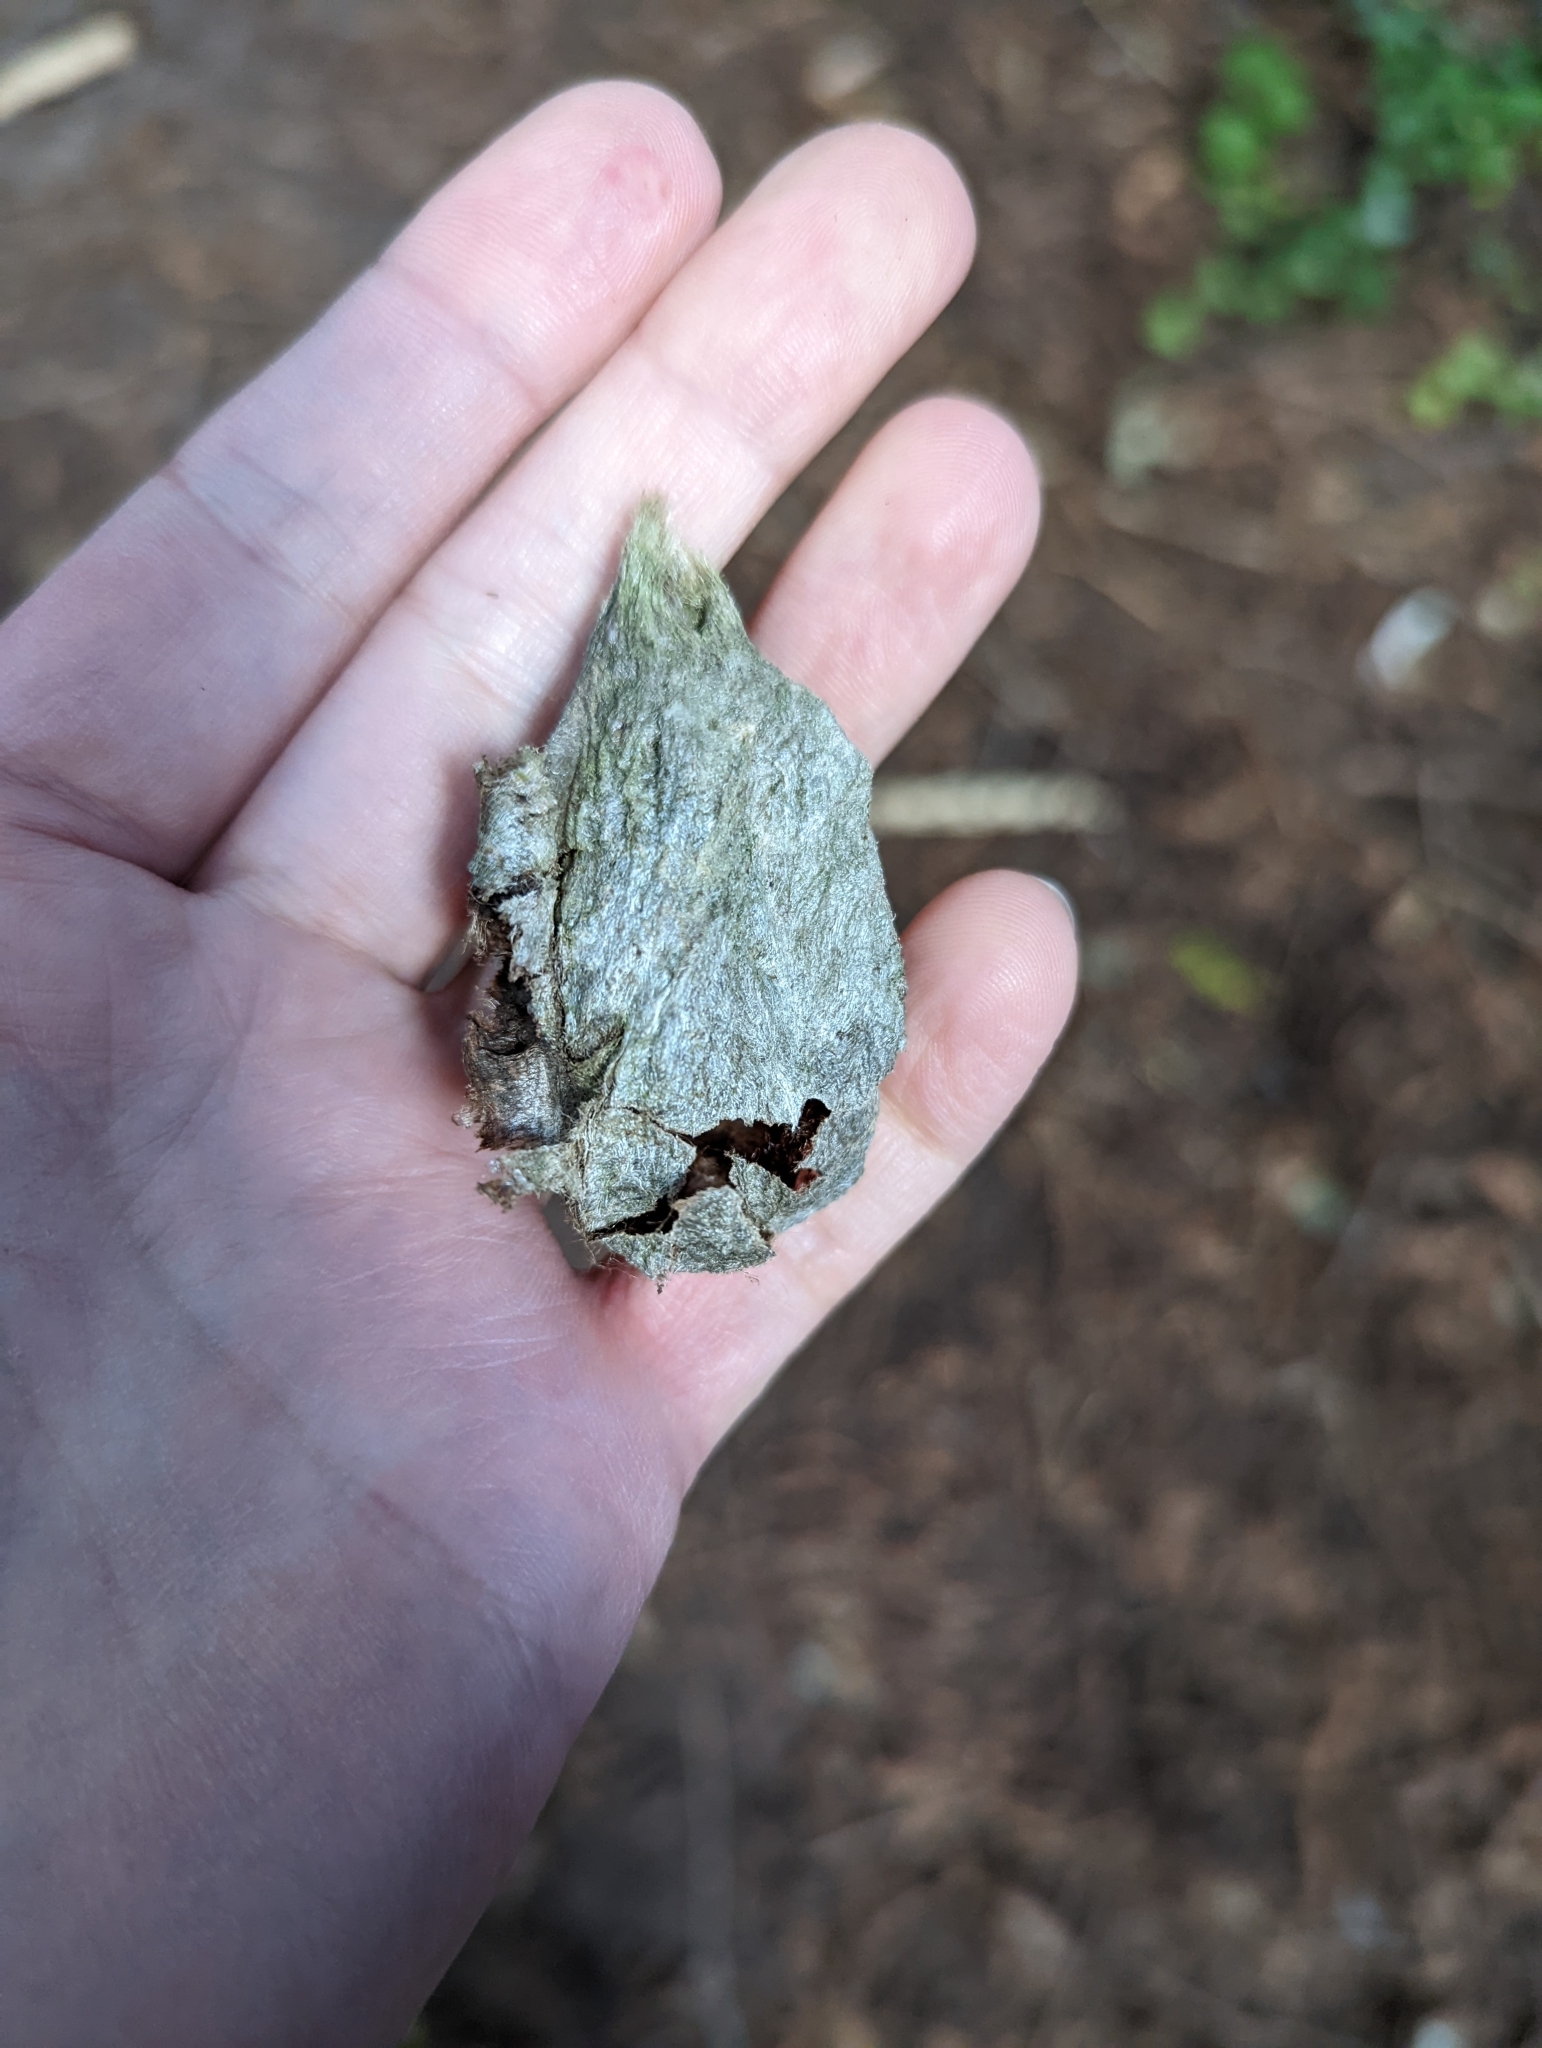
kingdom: Animalia
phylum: Arthropoda
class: Insecta
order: Lepidoptera
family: Saturniidae
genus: Hyalophora
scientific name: Hyalophora euryalus
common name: Ceanothus silkmoth
